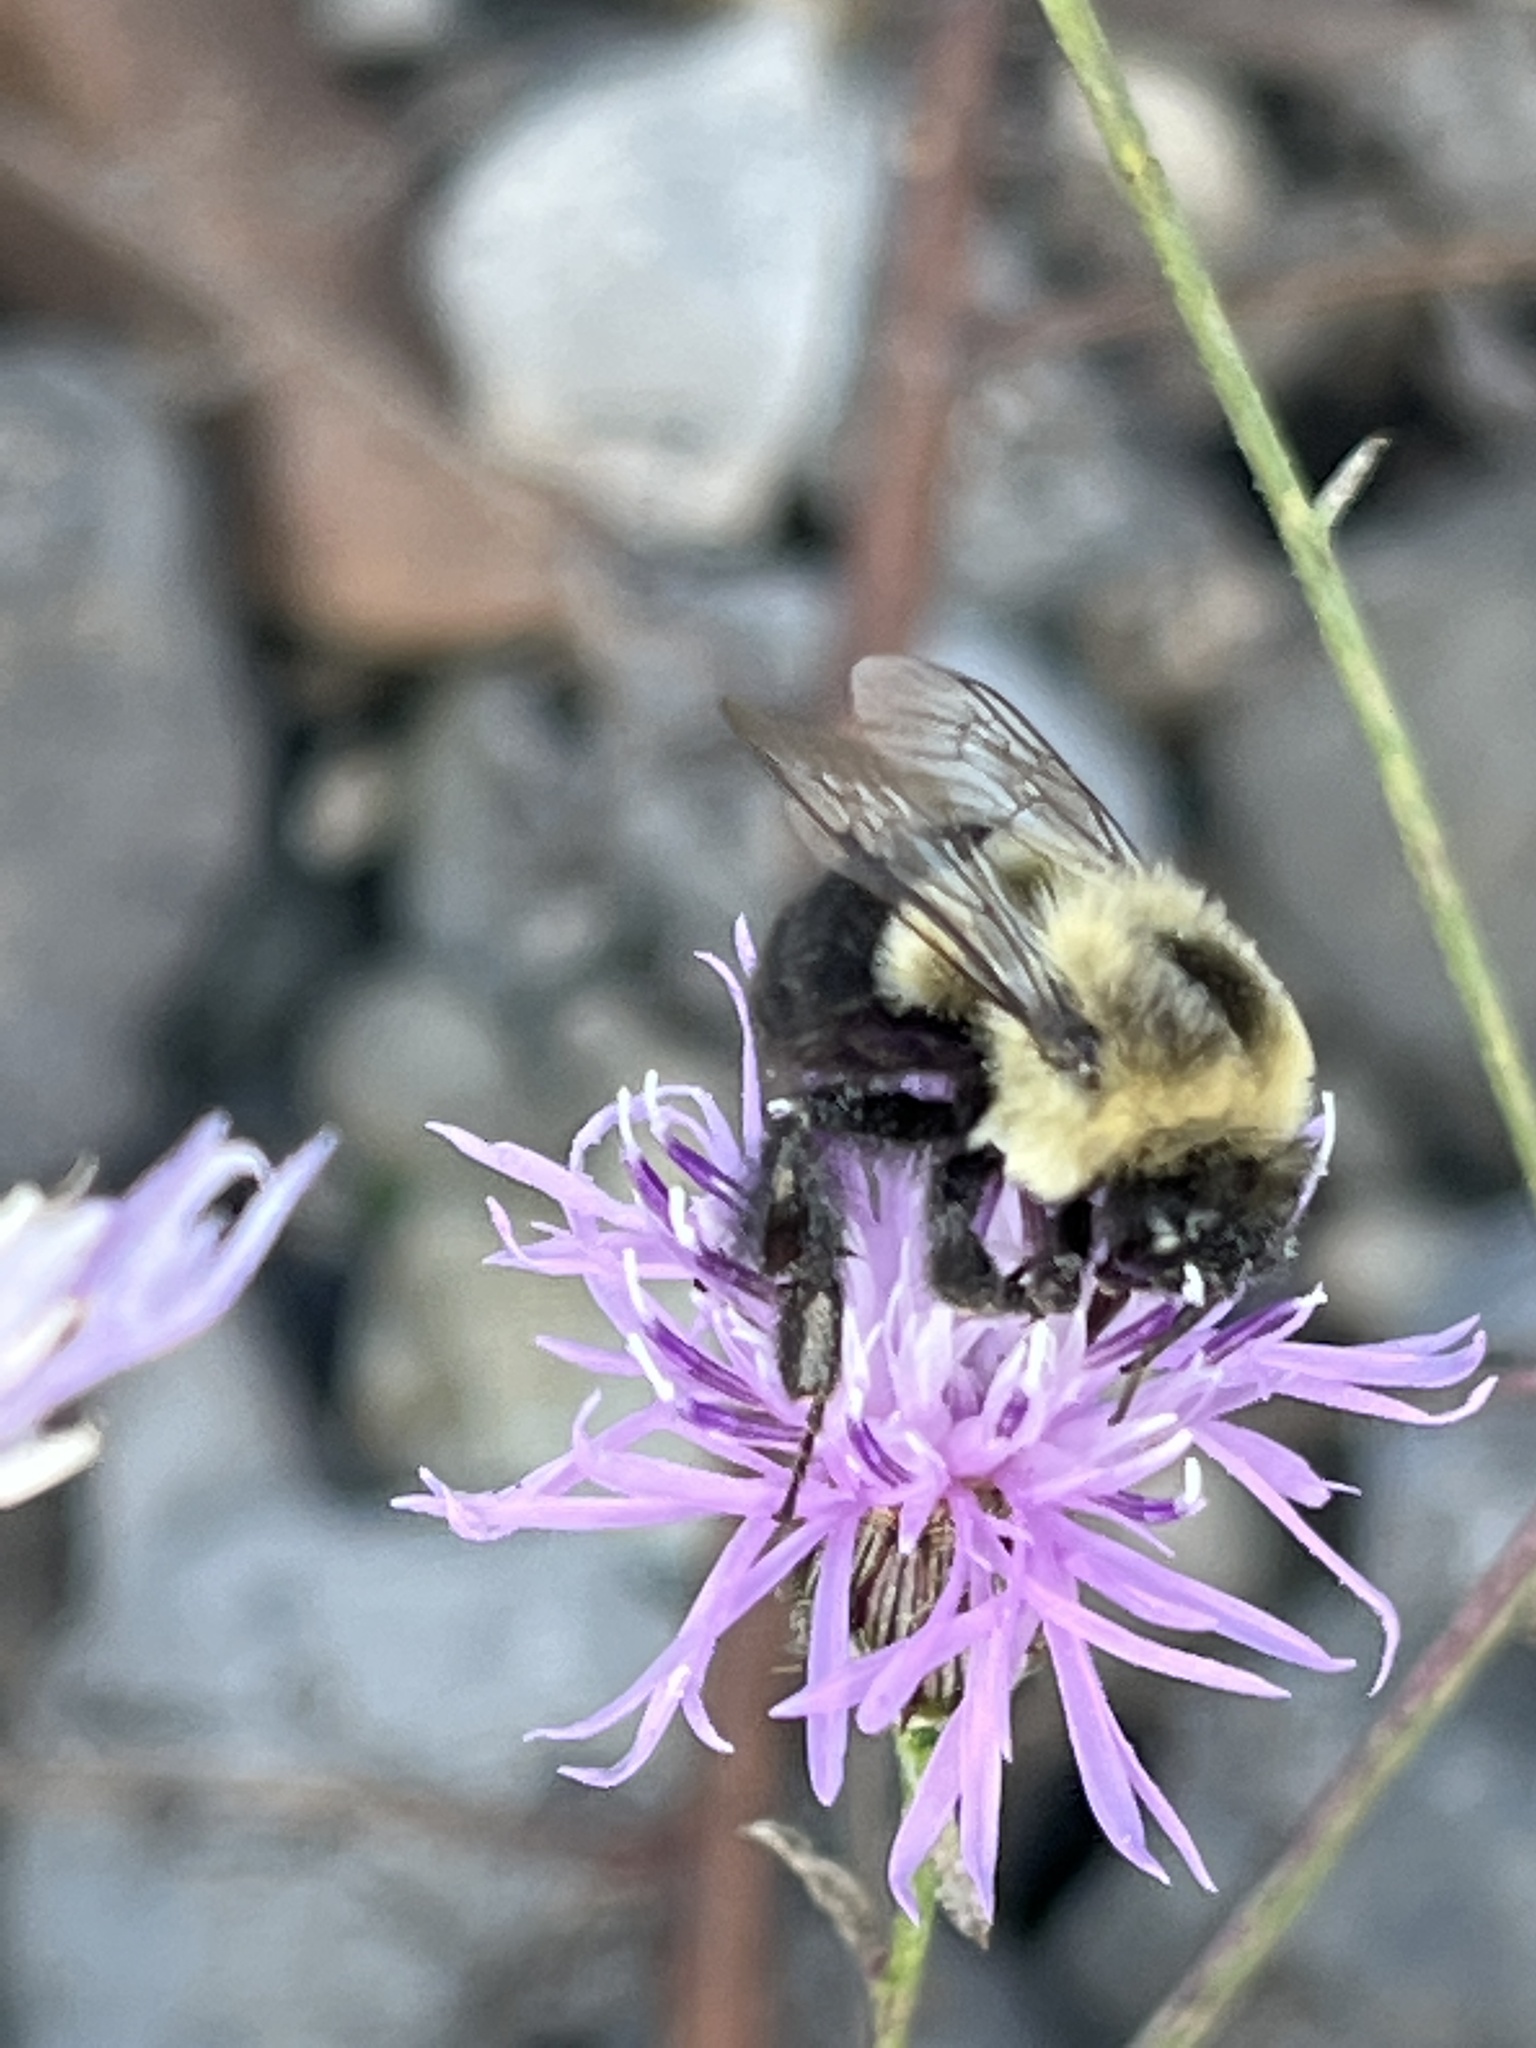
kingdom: Animalia
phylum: Arthropoda
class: Insecta
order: Hymenoptera
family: Apidae
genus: Bombus
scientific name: Bombus impatiens
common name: Common eastern bumble bee
